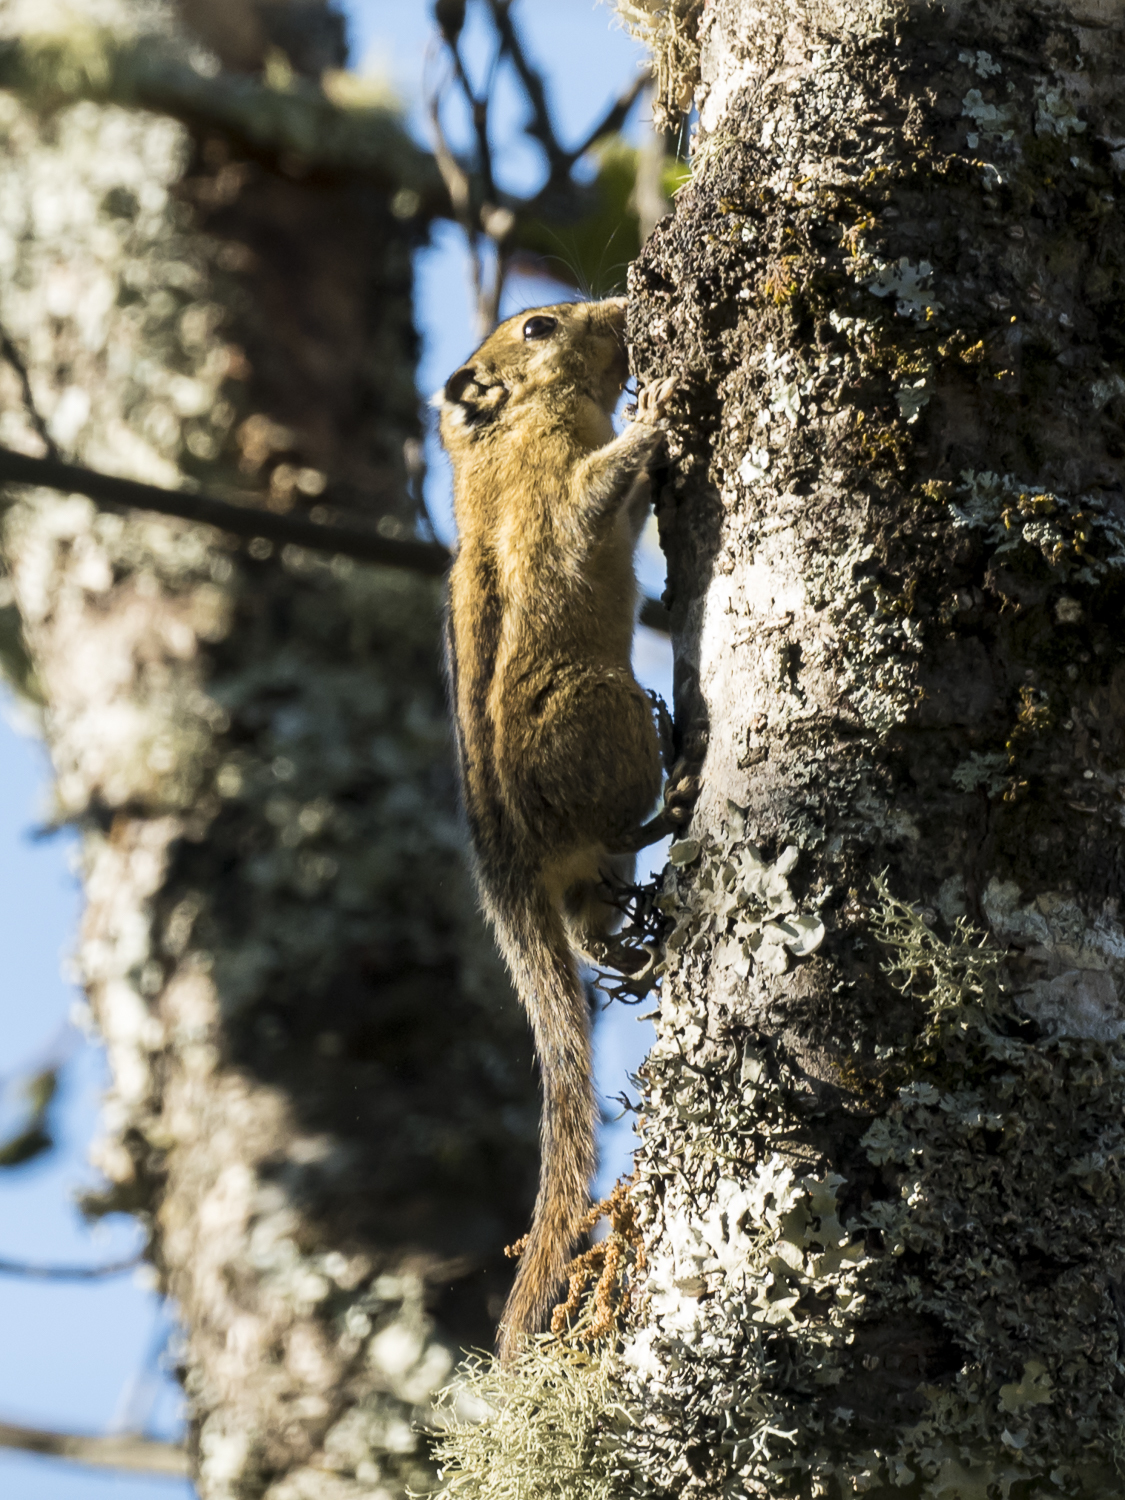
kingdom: Animalia
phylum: Chordata
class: Mammalia
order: Rodentia
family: Sciuridae
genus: Tamiops
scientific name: Tamiops mcclellandii
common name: Himalayan striped squirrel
